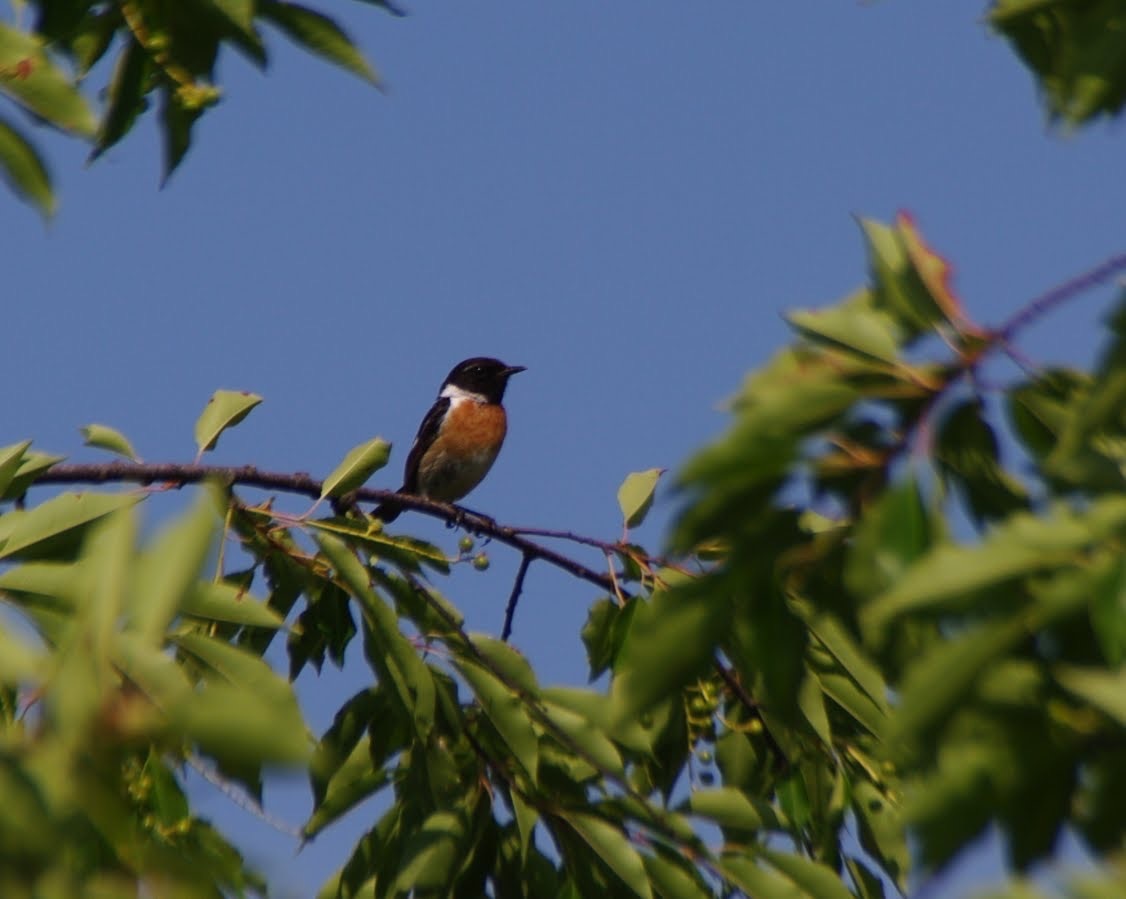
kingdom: Animalia
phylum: Chordata
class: Aves
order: Passeriformes
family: Muscicapidae
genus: Saxicola
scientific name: Saxicola rubicola
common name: European stonechat
